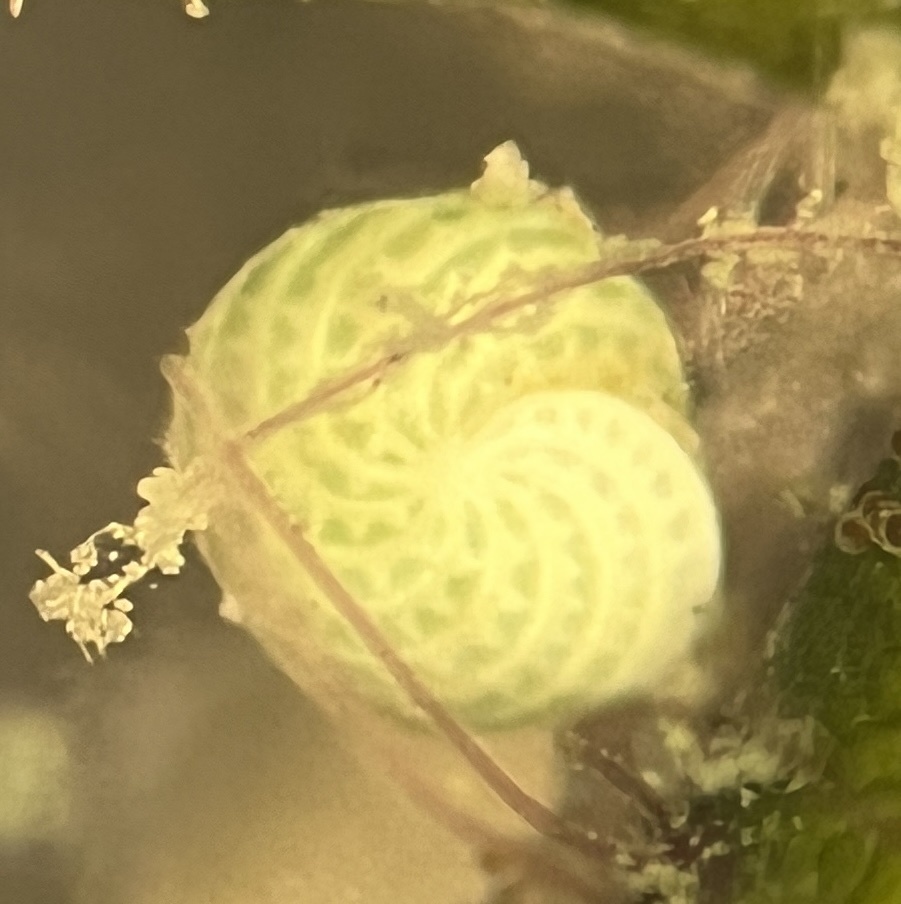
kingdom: Chromista
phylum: Foraminifera
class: Globothalamea
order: Rotaliida
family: Elphidiidae
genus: Elphidium
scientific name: Elphidium macellum
